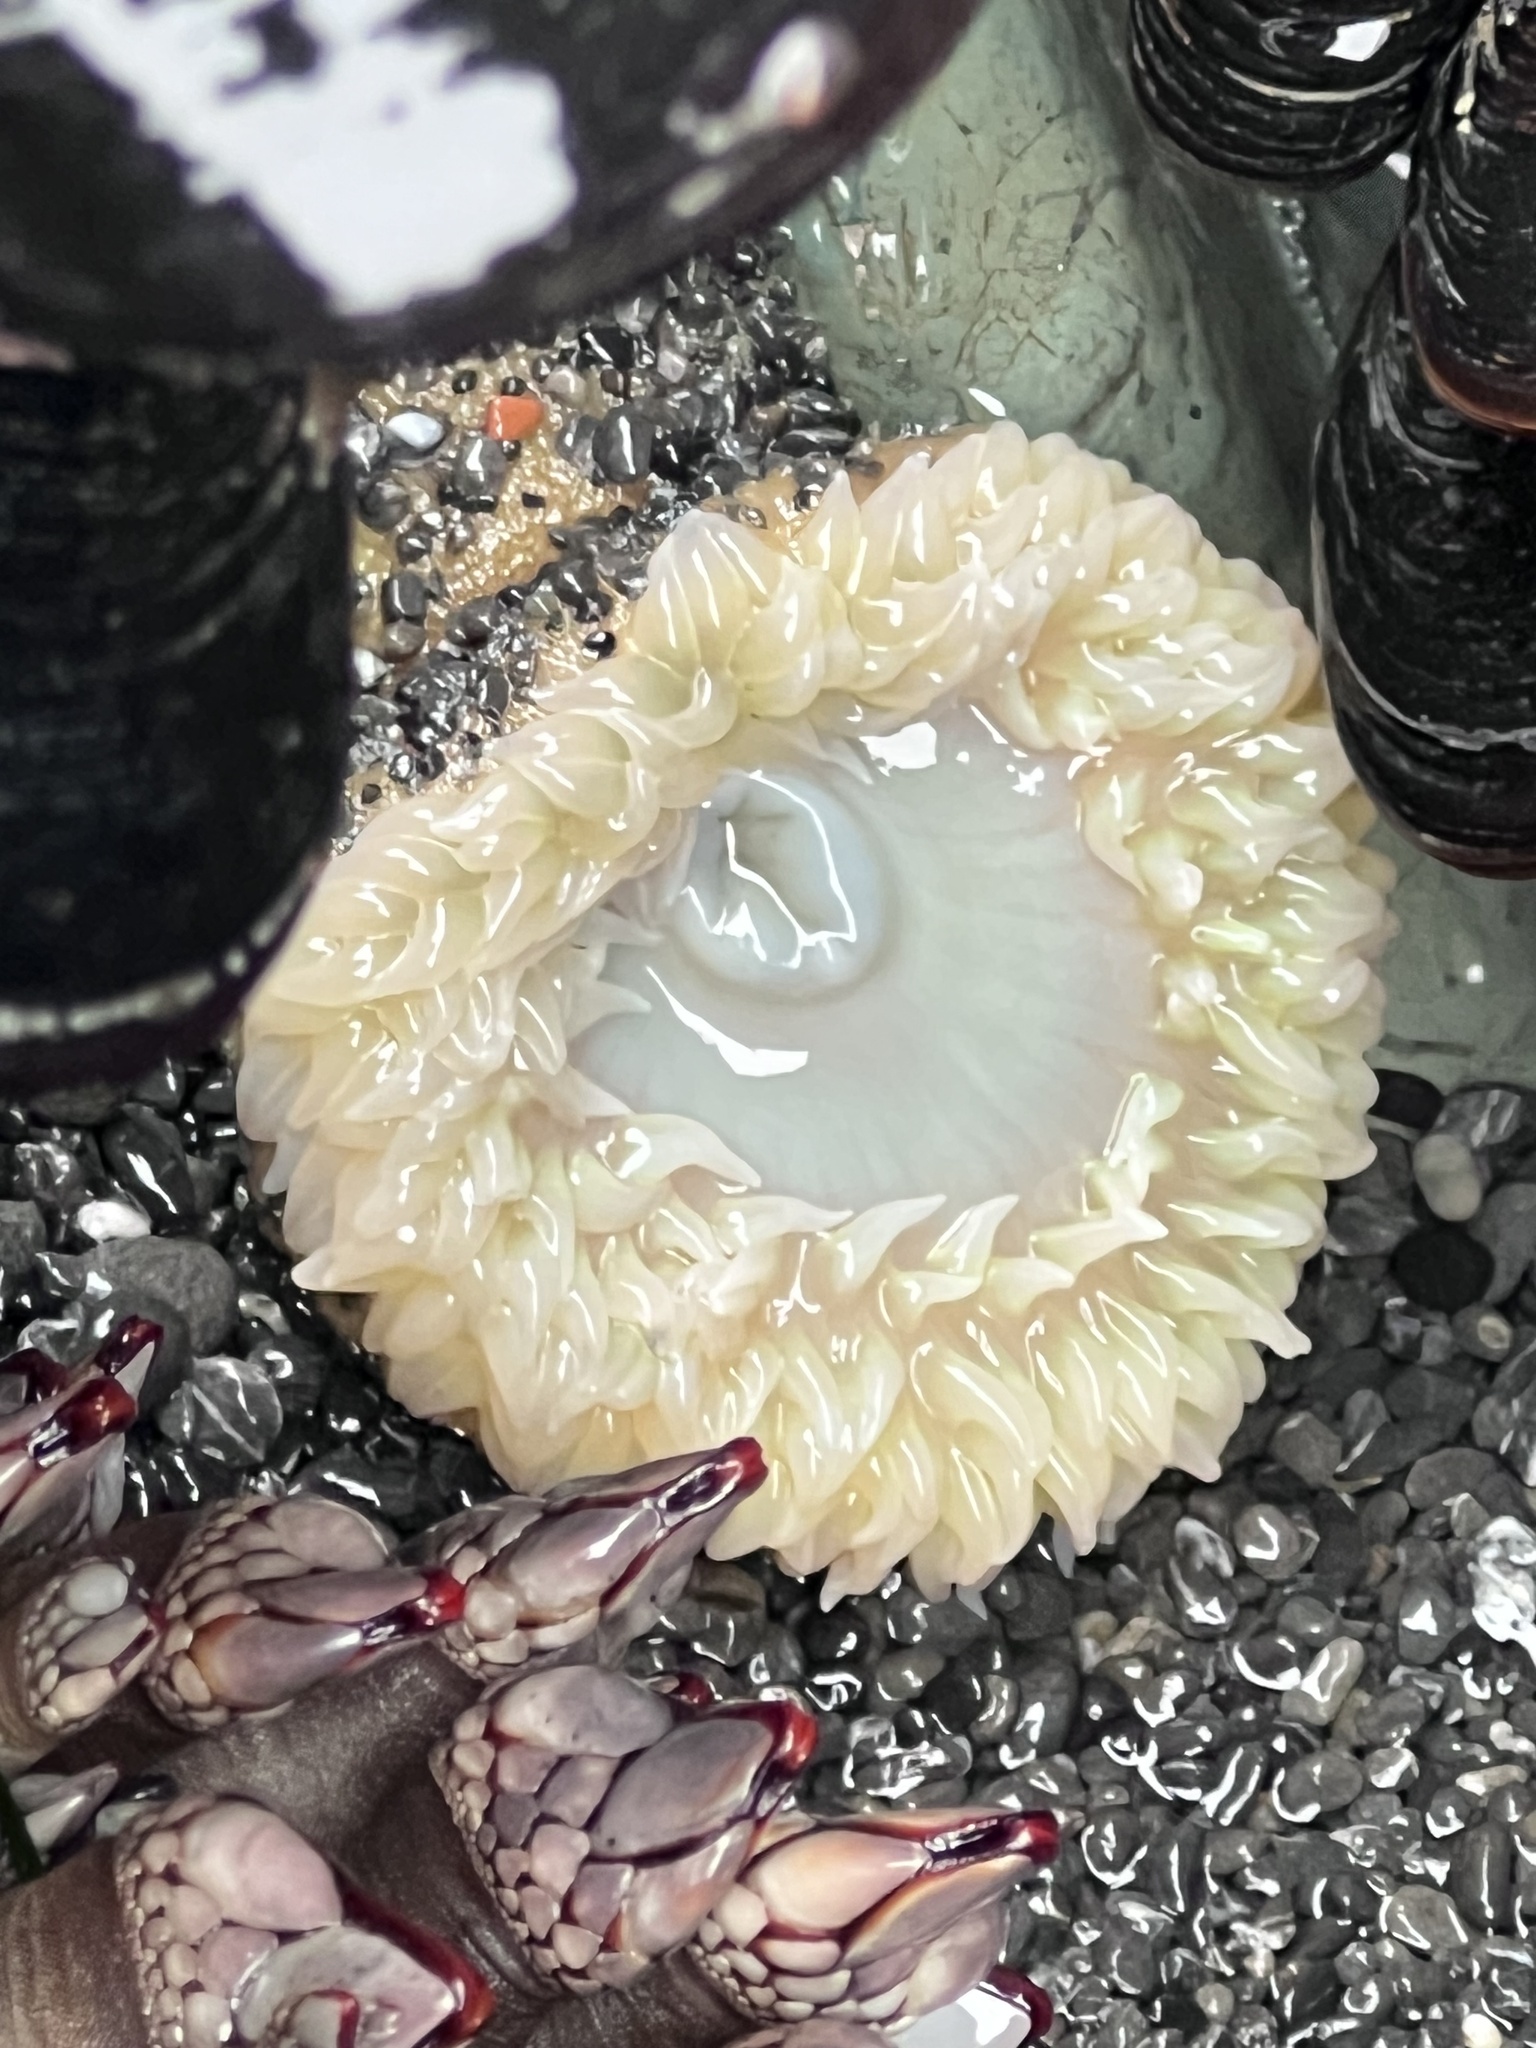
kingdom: Animalia
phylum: Cnidaria
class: Anthozoa
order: Actiniaria
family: Actiniidae
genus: Anthopleura
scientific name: Anthopleura xanthogrammica
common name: Giant green anemone
